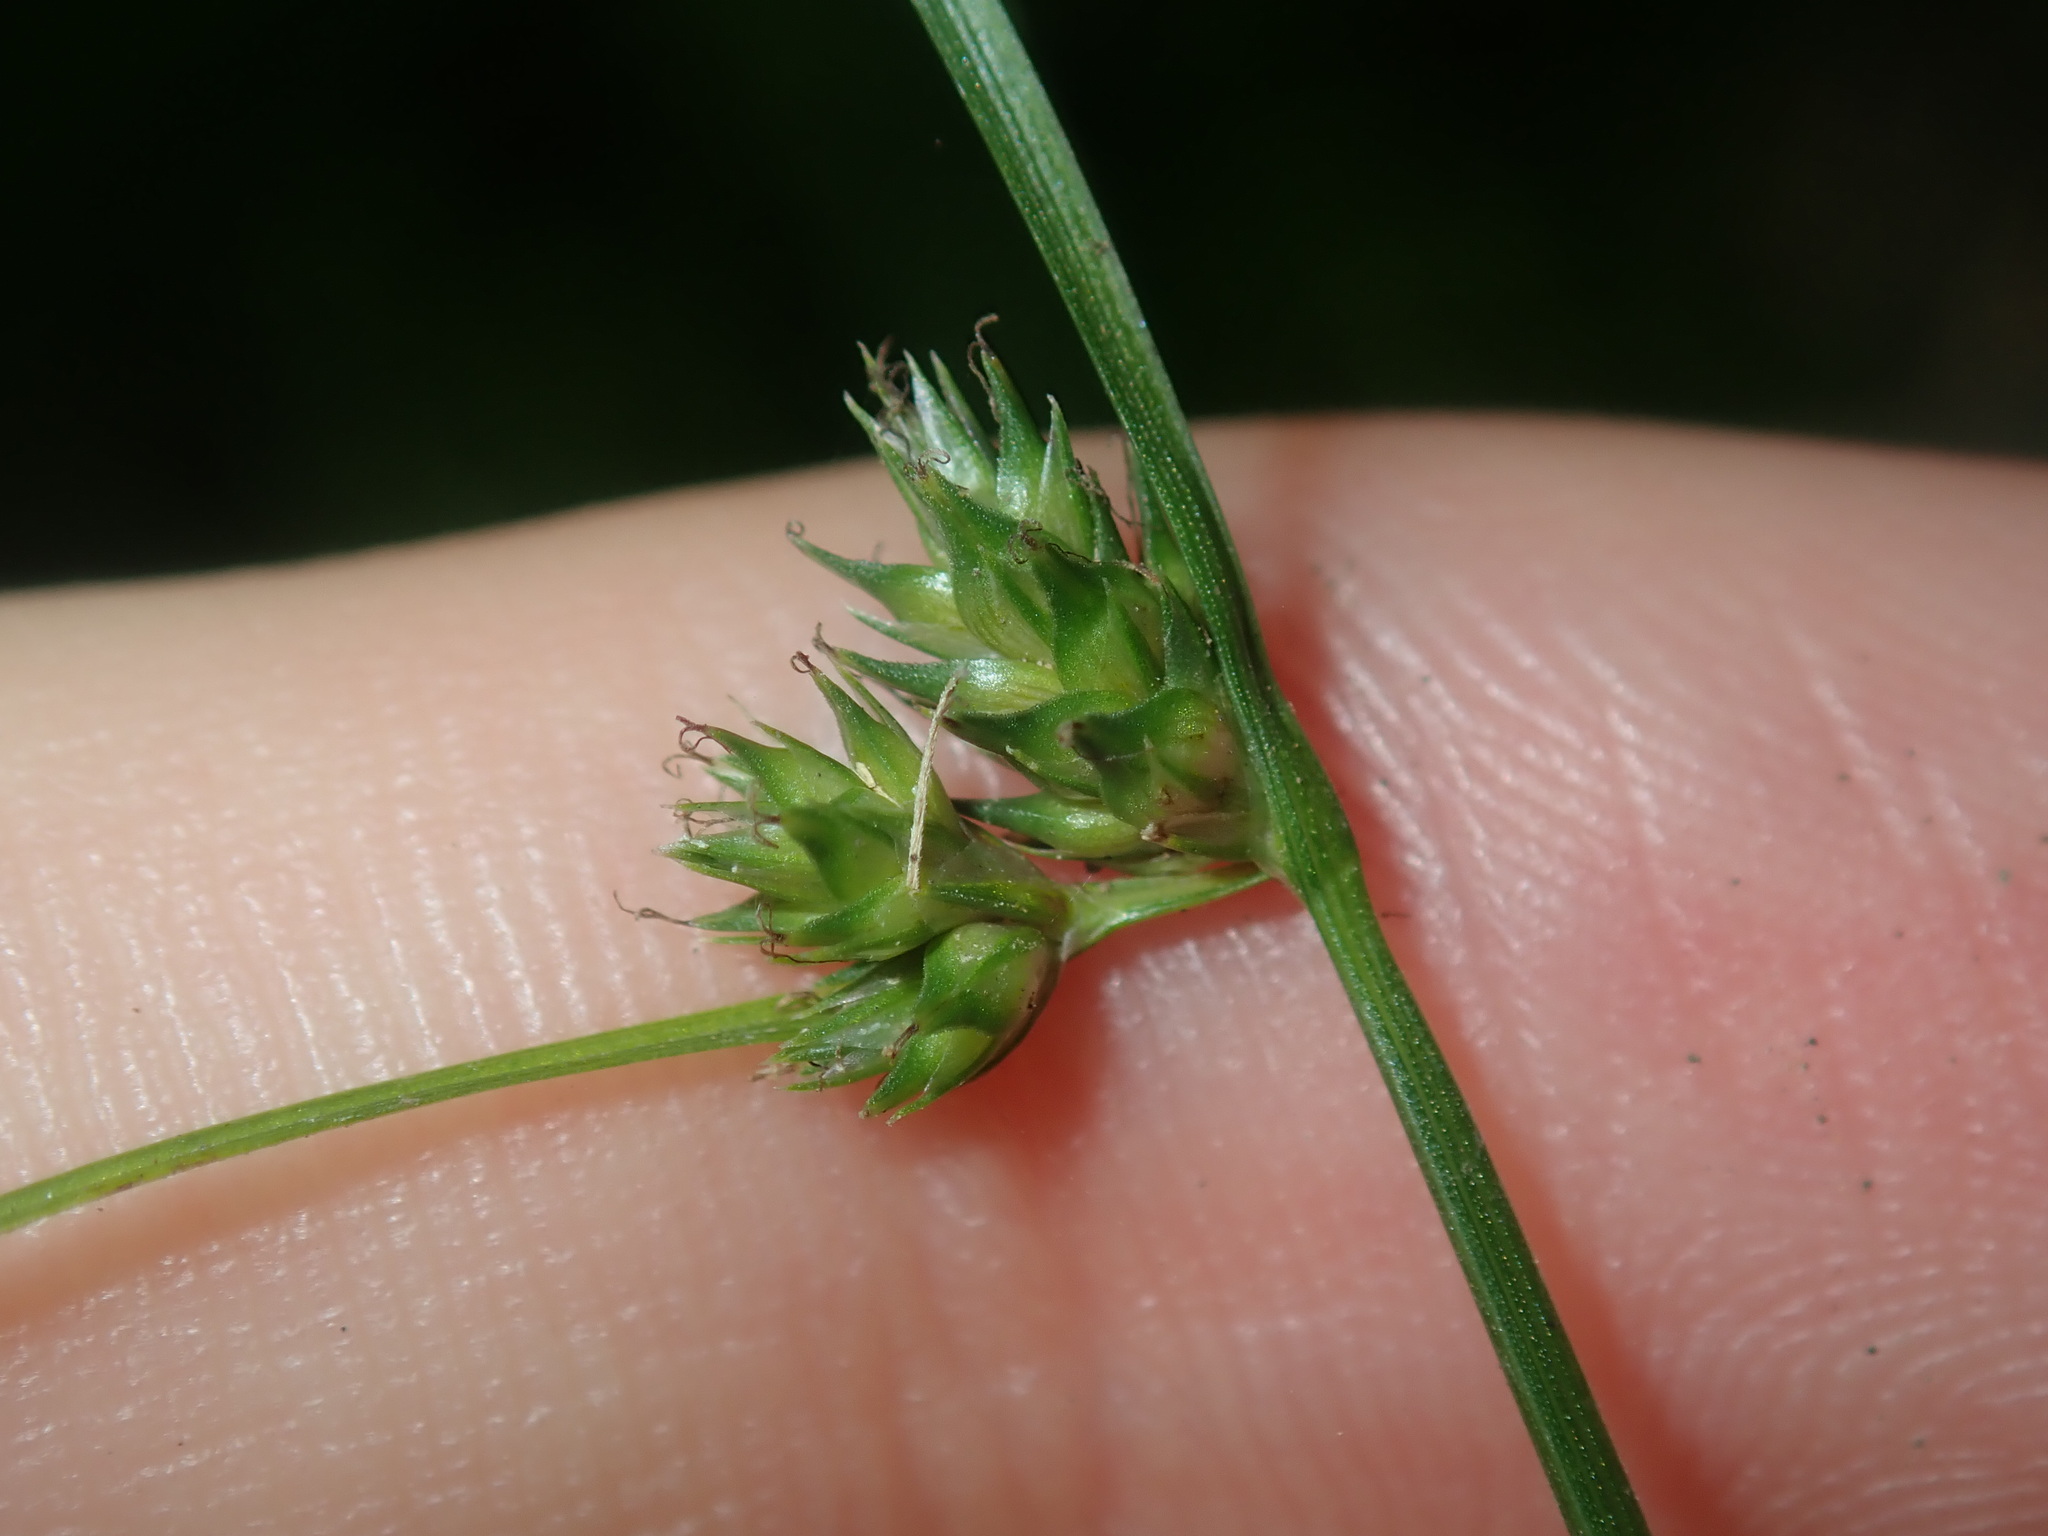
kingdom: Plantae
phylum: Tracheophyta
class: Liliopsida
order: Poales
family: Cyperaceae
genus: Carex
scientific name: Carex inversa
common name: Knob sedge
